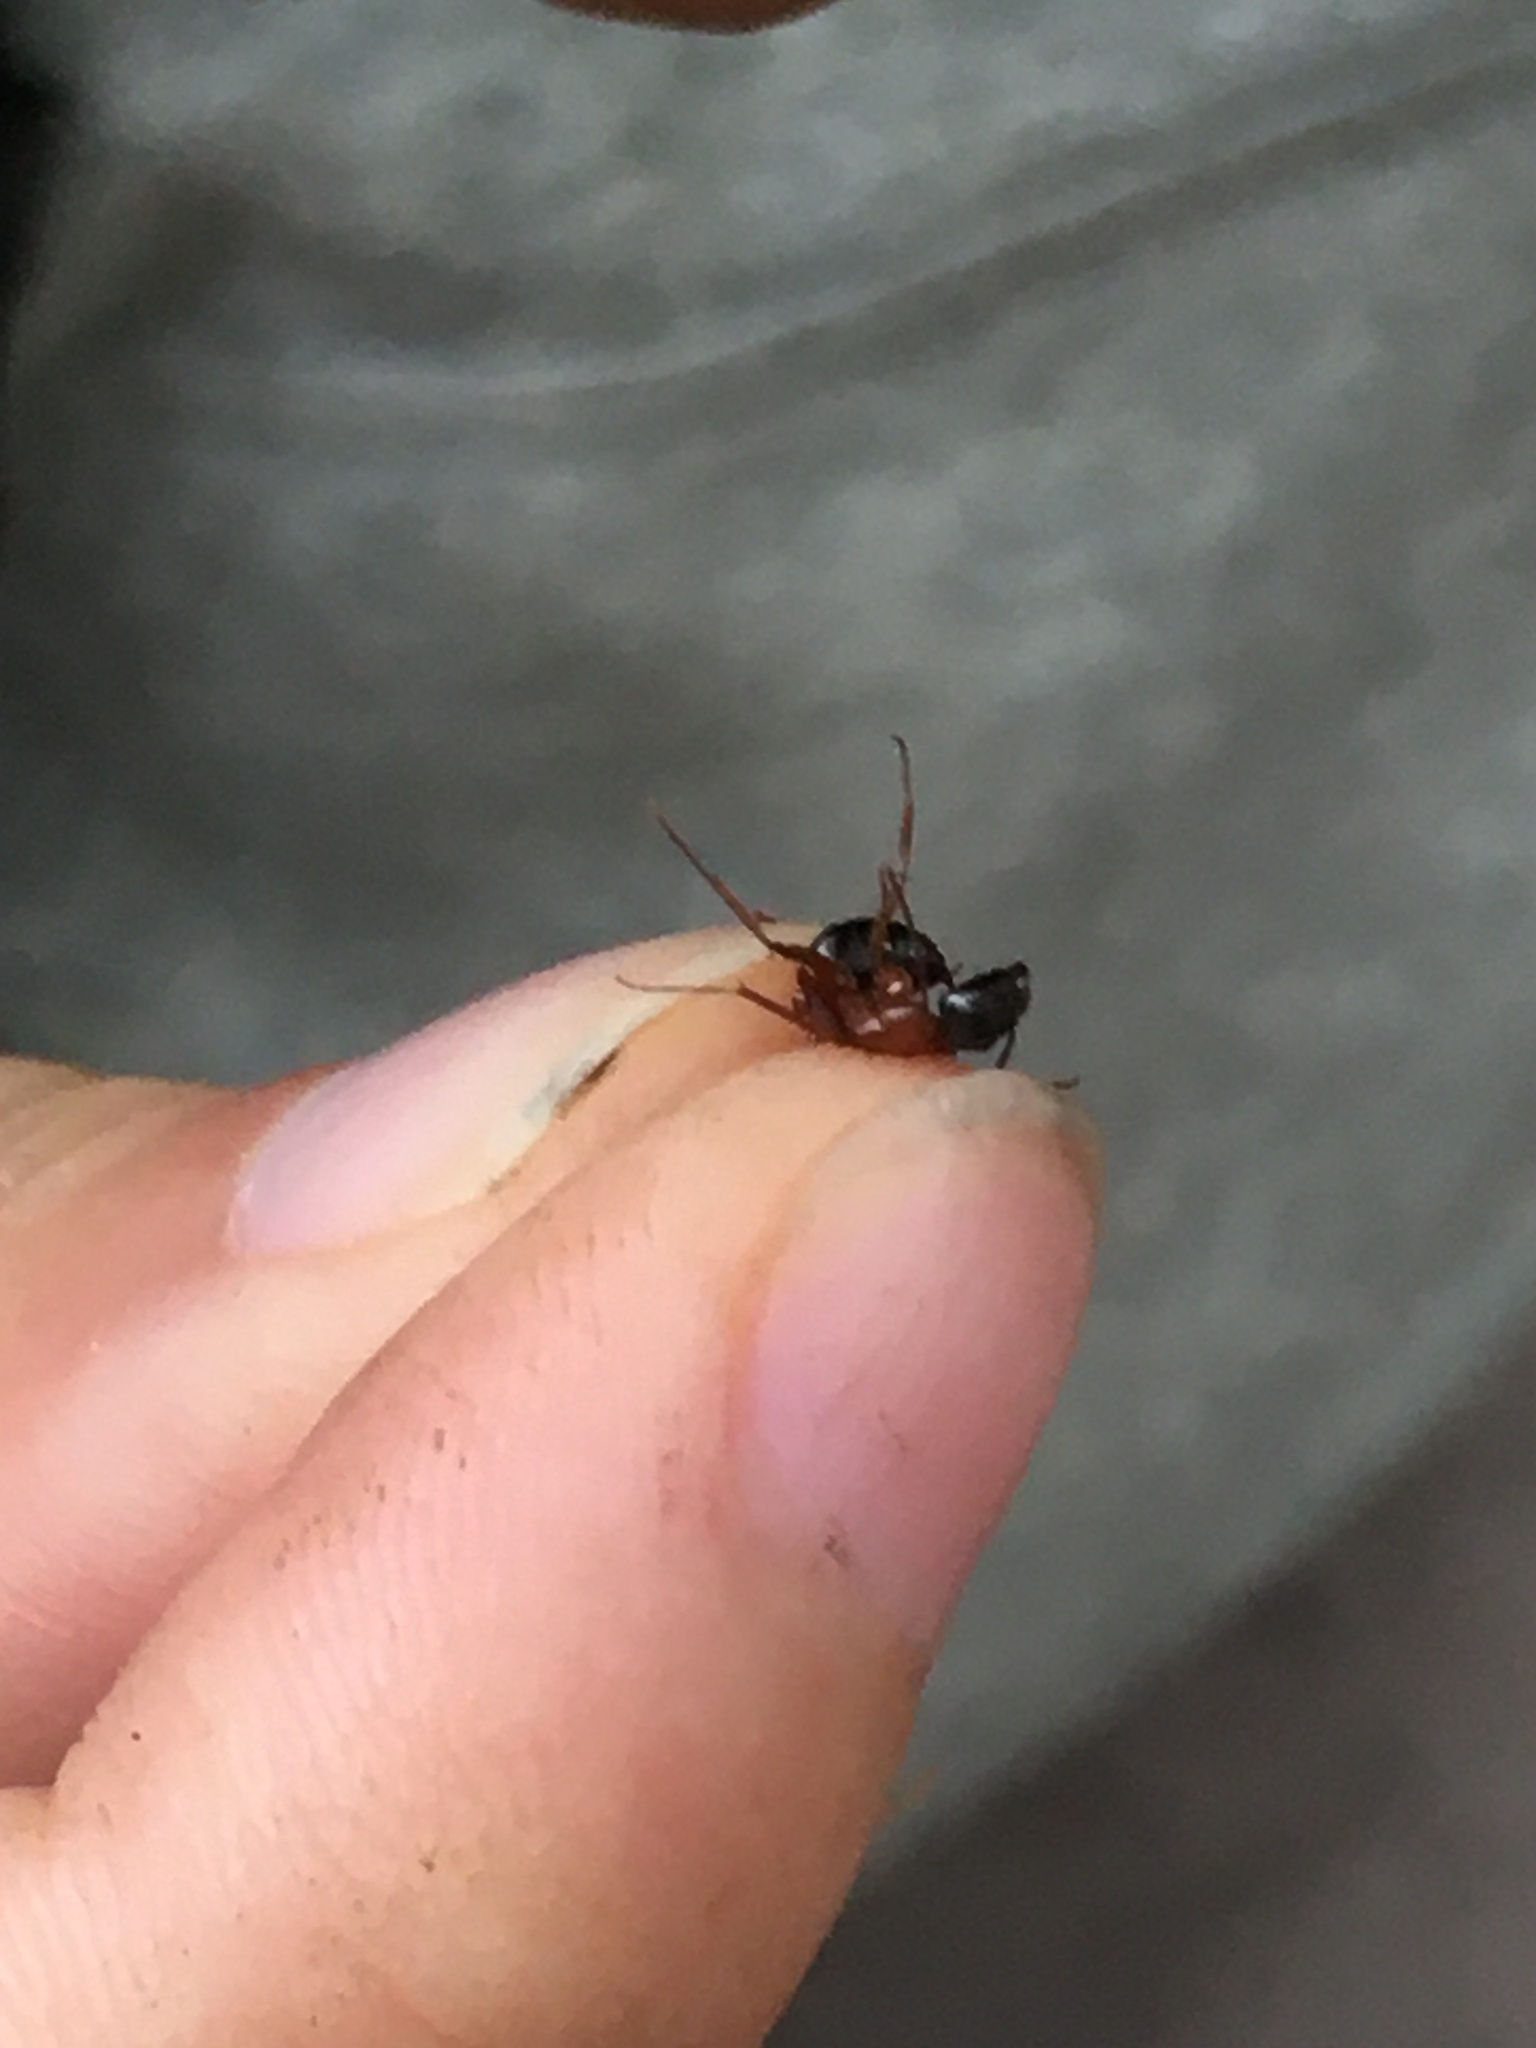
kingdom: Animalia
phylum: Arthropoda
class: Insecta
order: Hymenoptera
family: Formicidae
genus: Tanaemyrmex
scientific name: Tanaemyrmex
